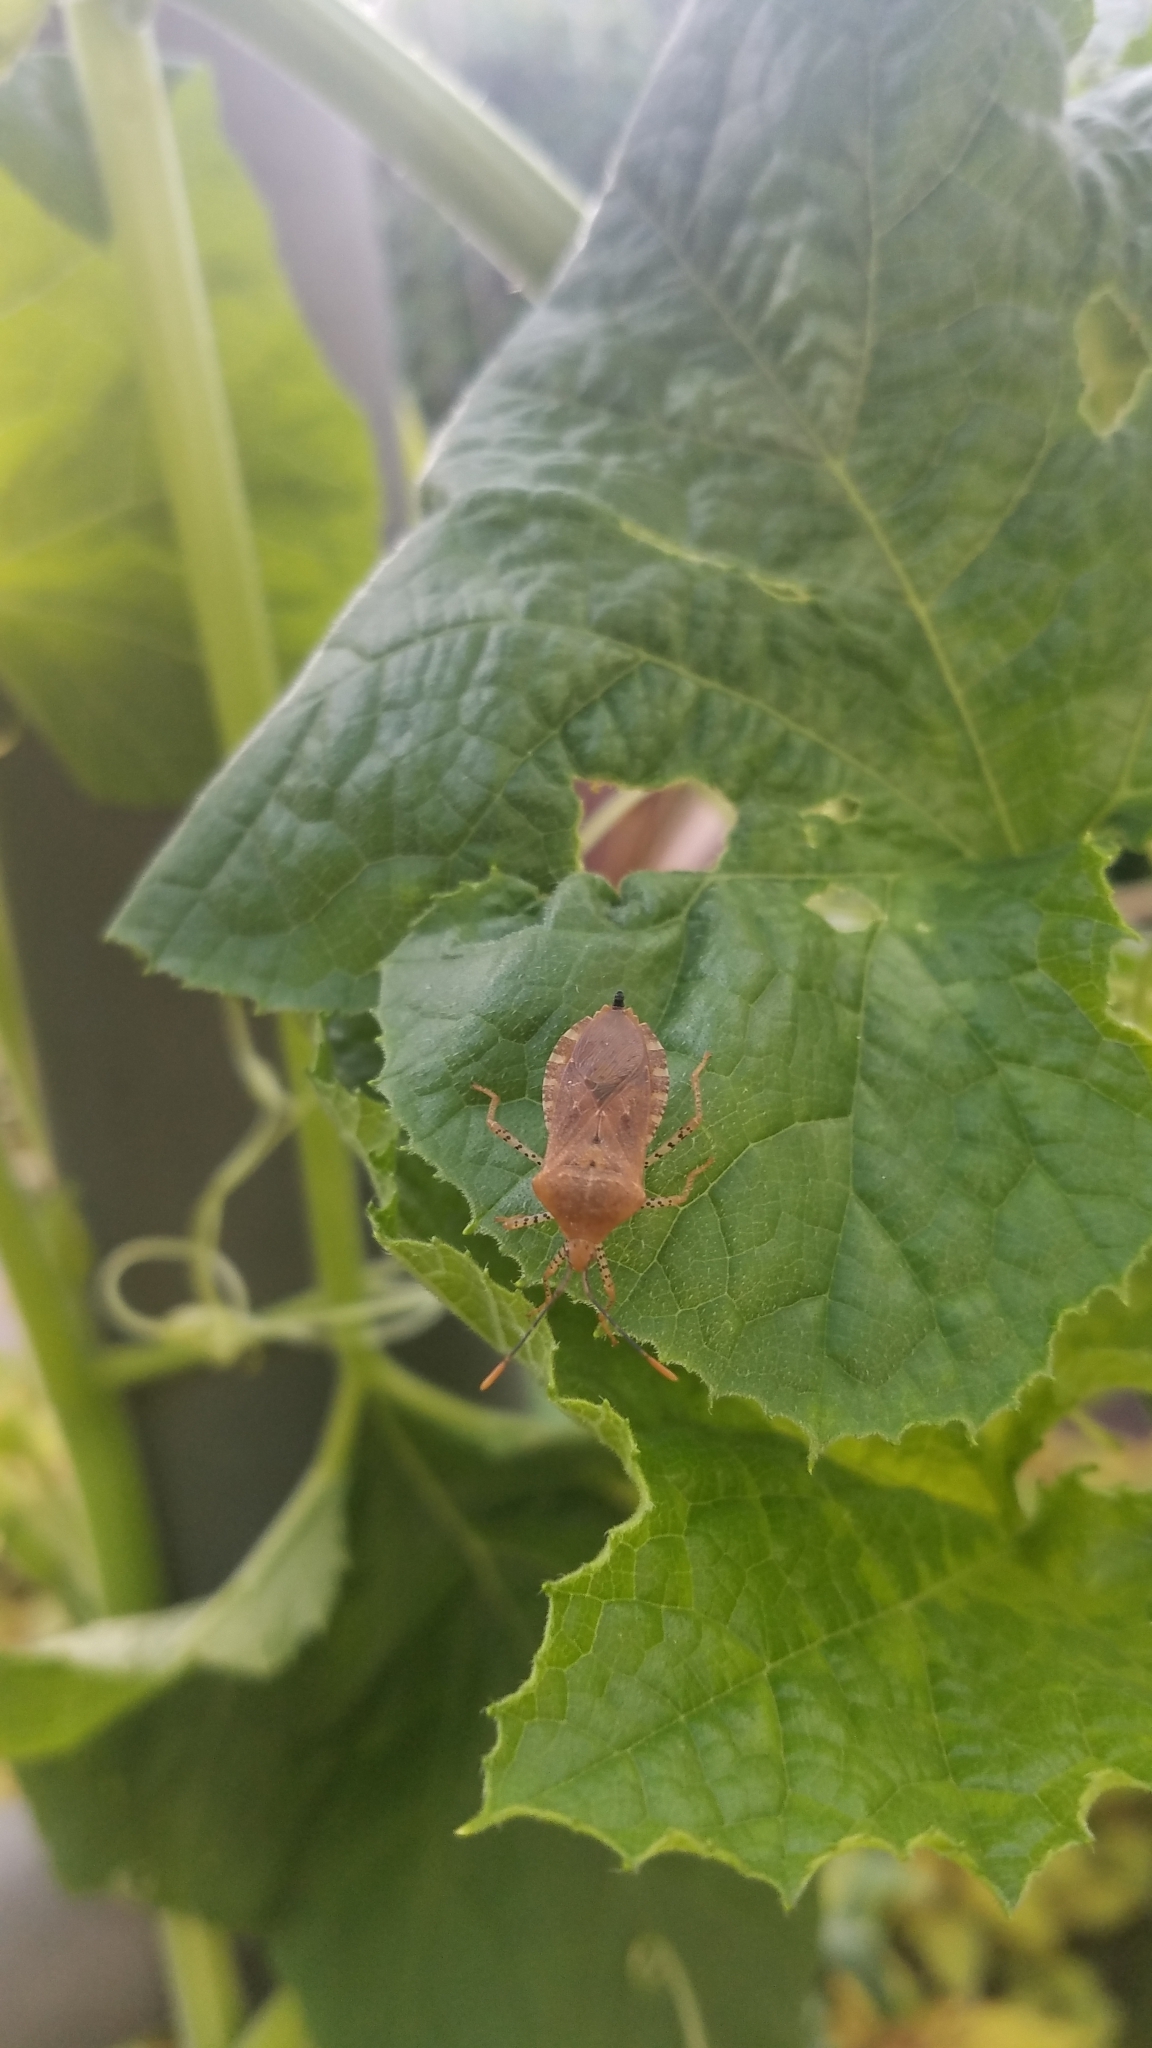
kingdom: Animalia
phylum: Arthropoda
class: Insecta
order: Hemiptera
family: Coreidae
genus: Anasa
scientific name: Anasa repetita
